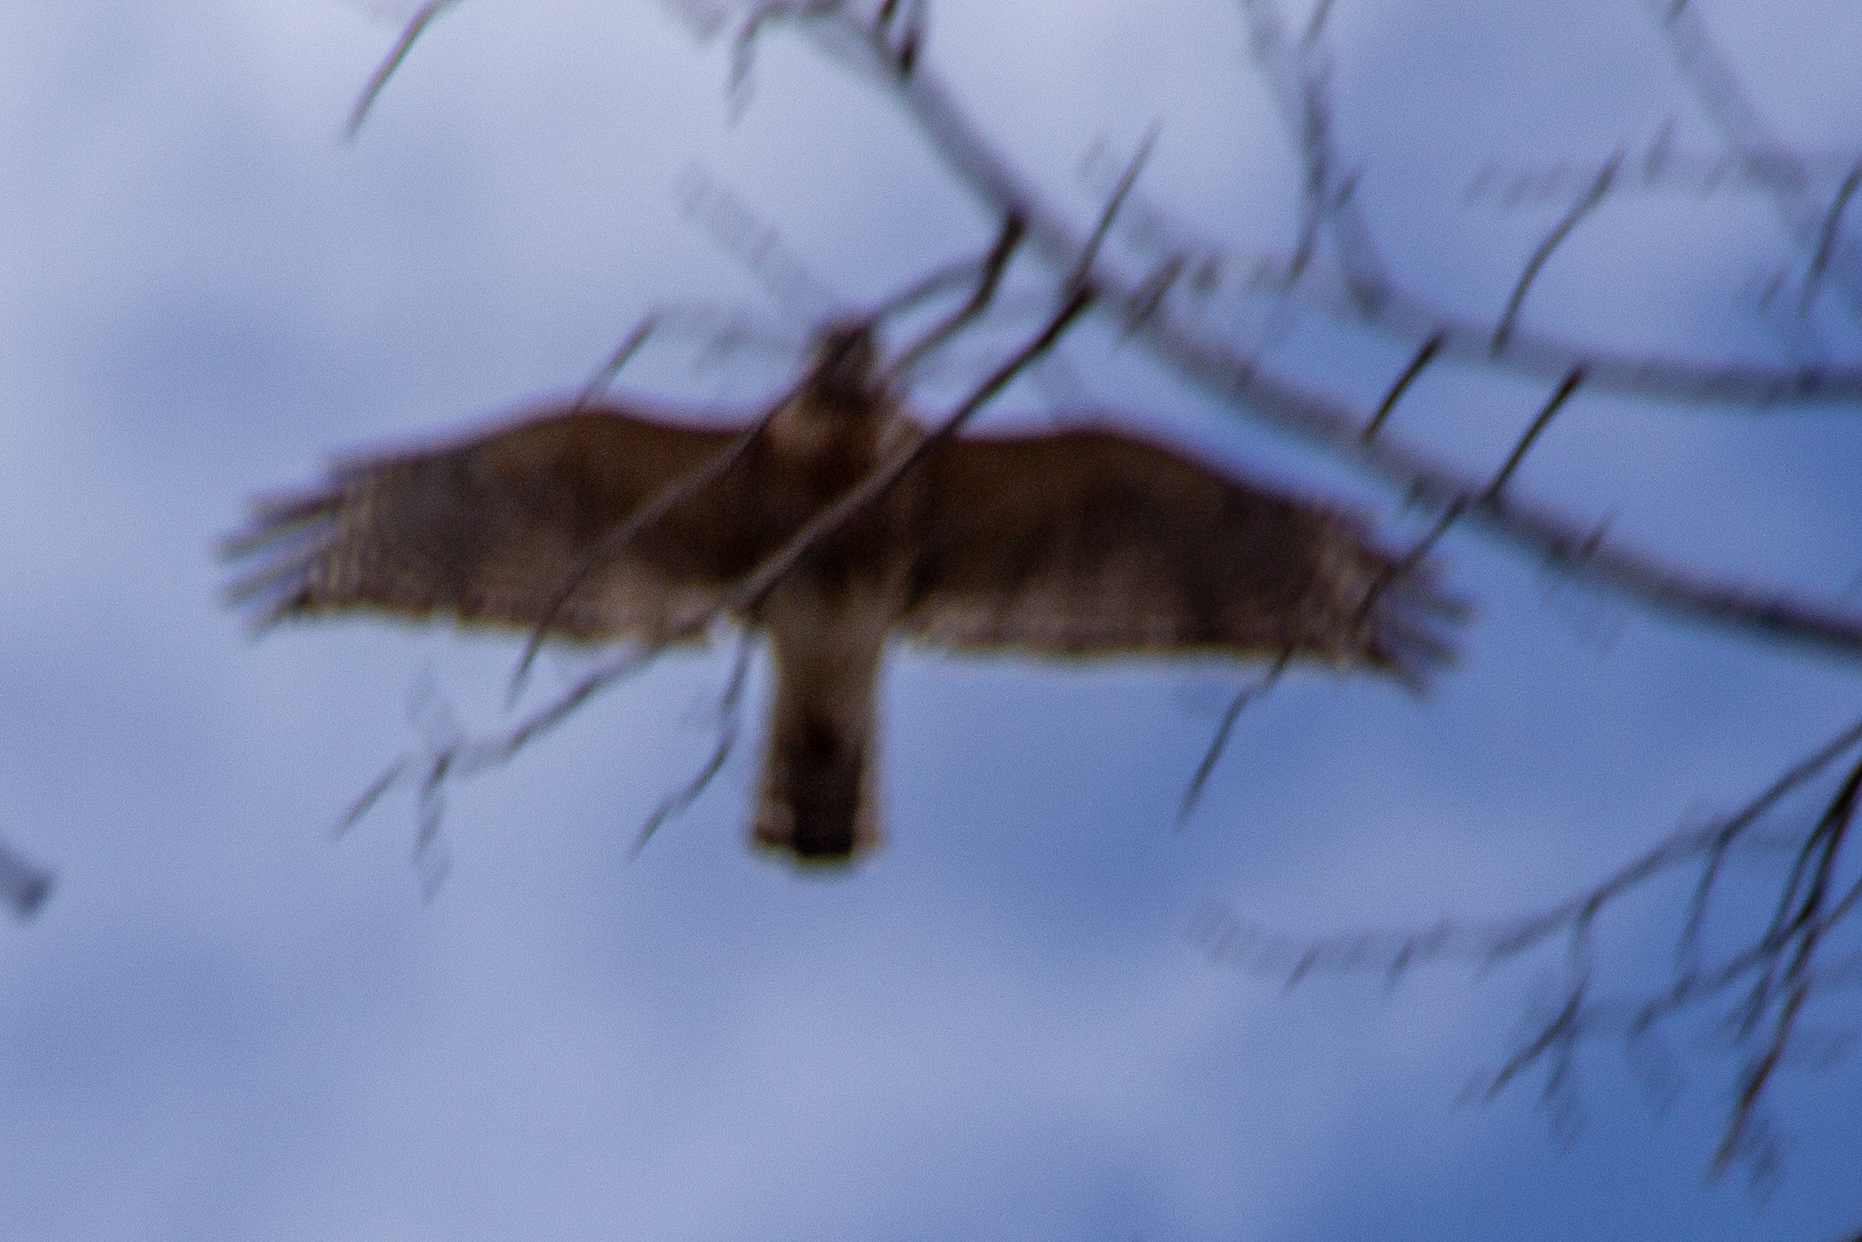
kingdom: Animalia
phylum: Chordata
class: Aves
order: Accipitriformes
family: Accipitridae
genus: Buteo
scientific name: Buteo lineatus
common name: Red-shouldered hawk
